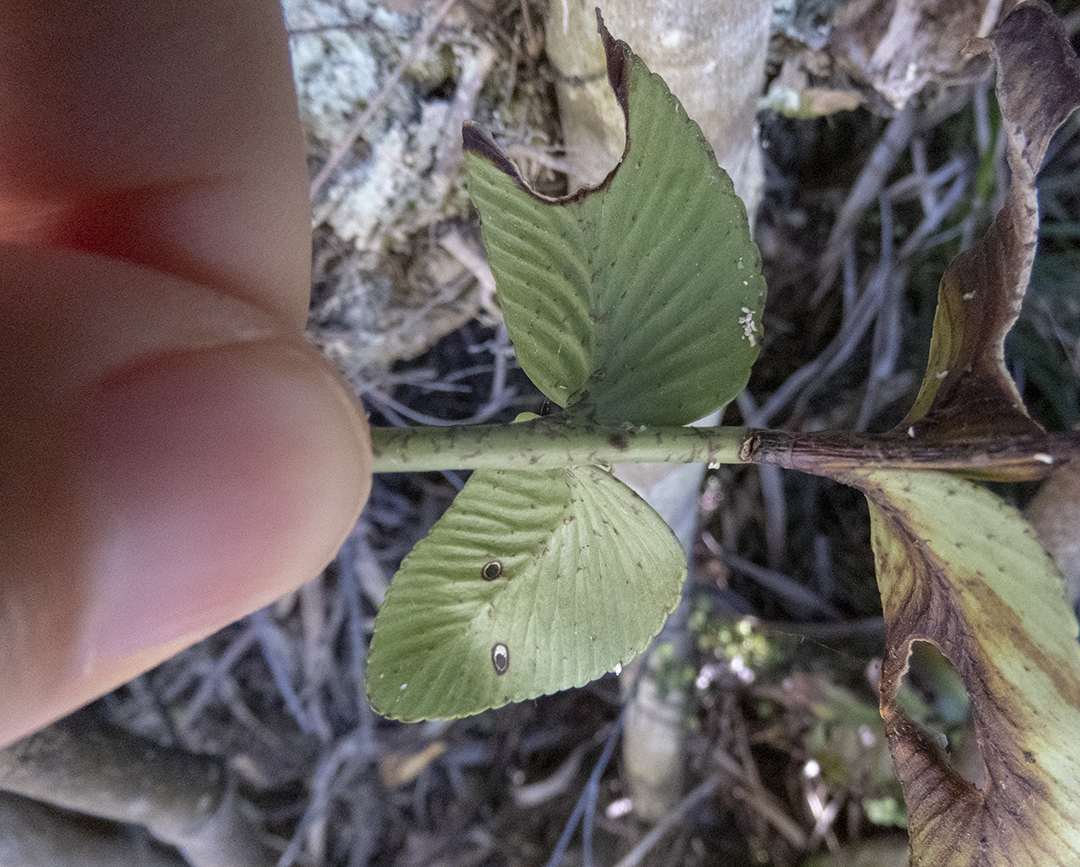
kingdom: Plantae
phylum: Tracheophyta
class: Polypodiopsida
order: Polypodiales
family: Aspleniaceae
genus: Asplenium
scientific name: Asplenium obtusatum
